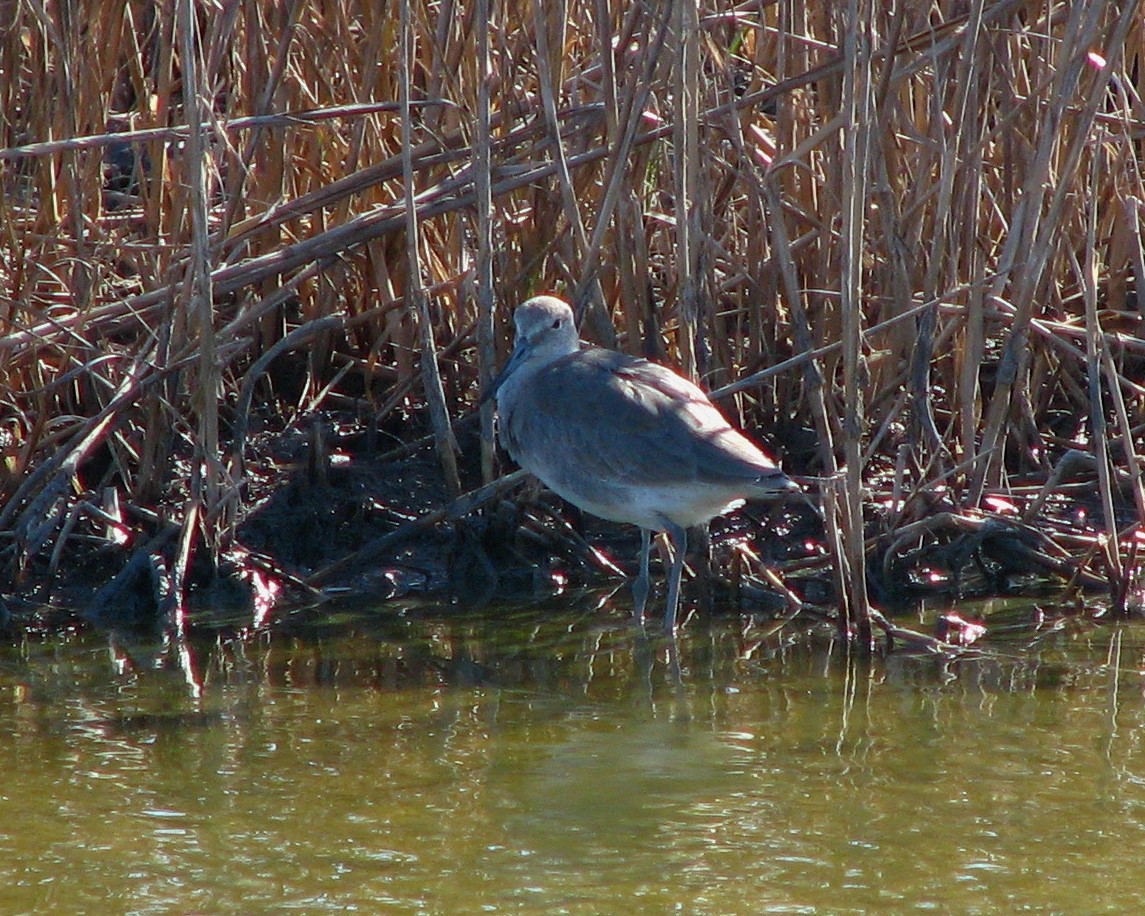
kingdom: Animalia
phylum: Chordata
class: Aves
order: Charadriiformes
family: Scolopacidae
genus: Tringa
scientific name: Tringa semipalmata
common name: Willet
